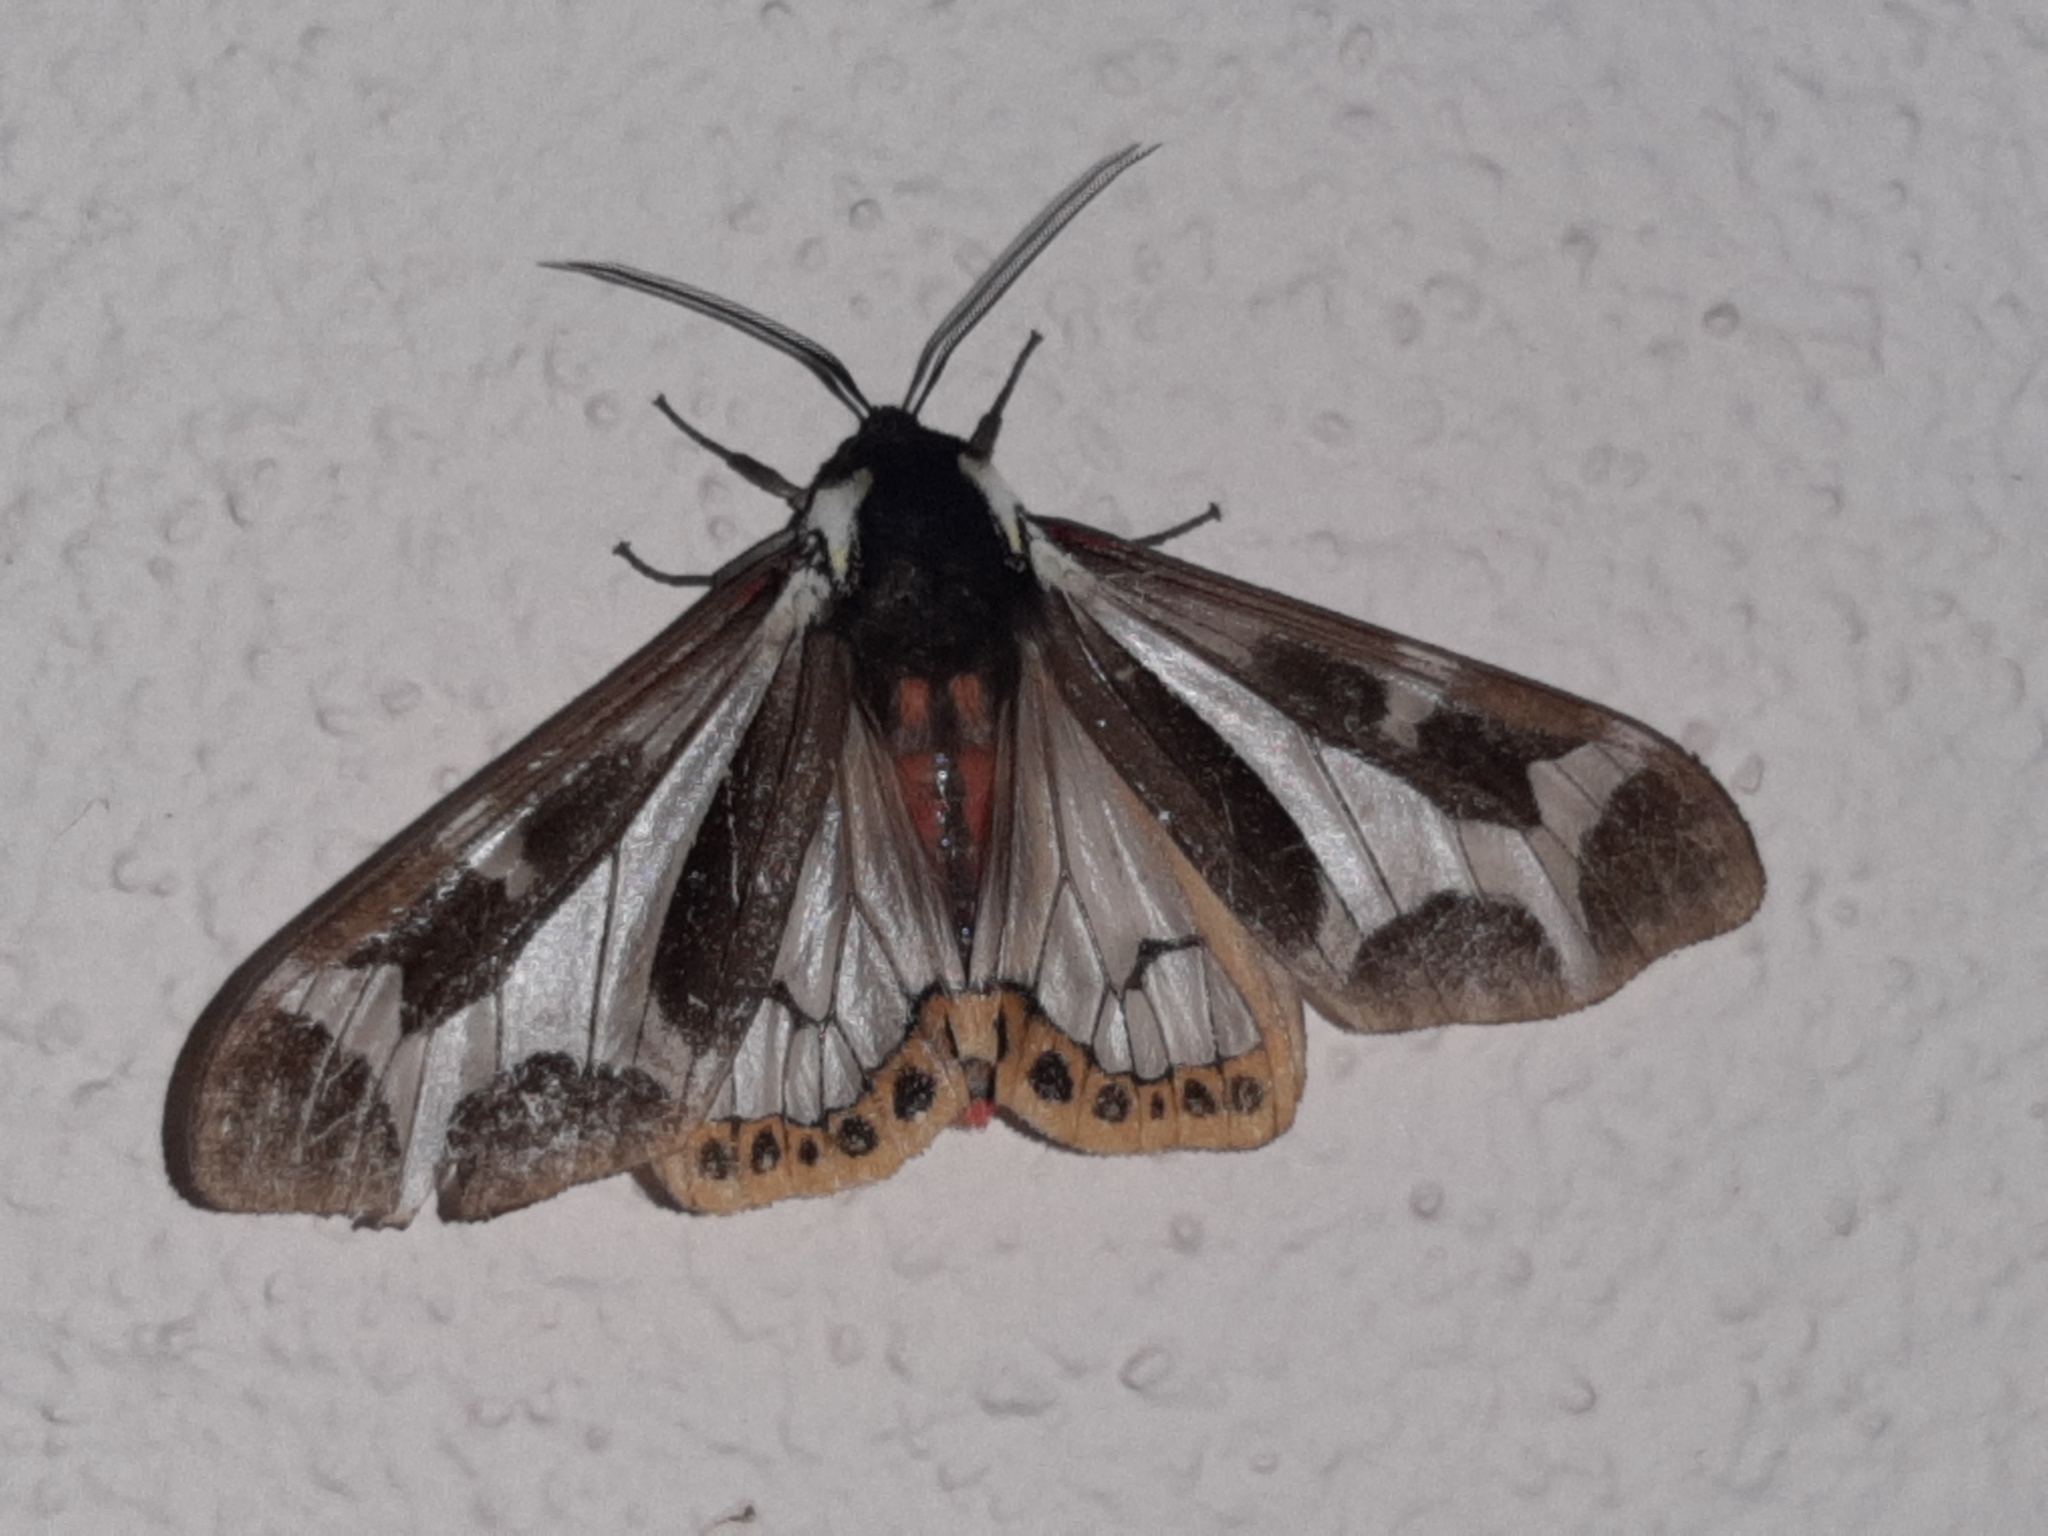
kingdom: Animalia
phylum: Arthropoda
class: Insecta
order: Lepidoptera
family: Erebidae
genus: Dysschema
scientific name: Dysschema mariamne
